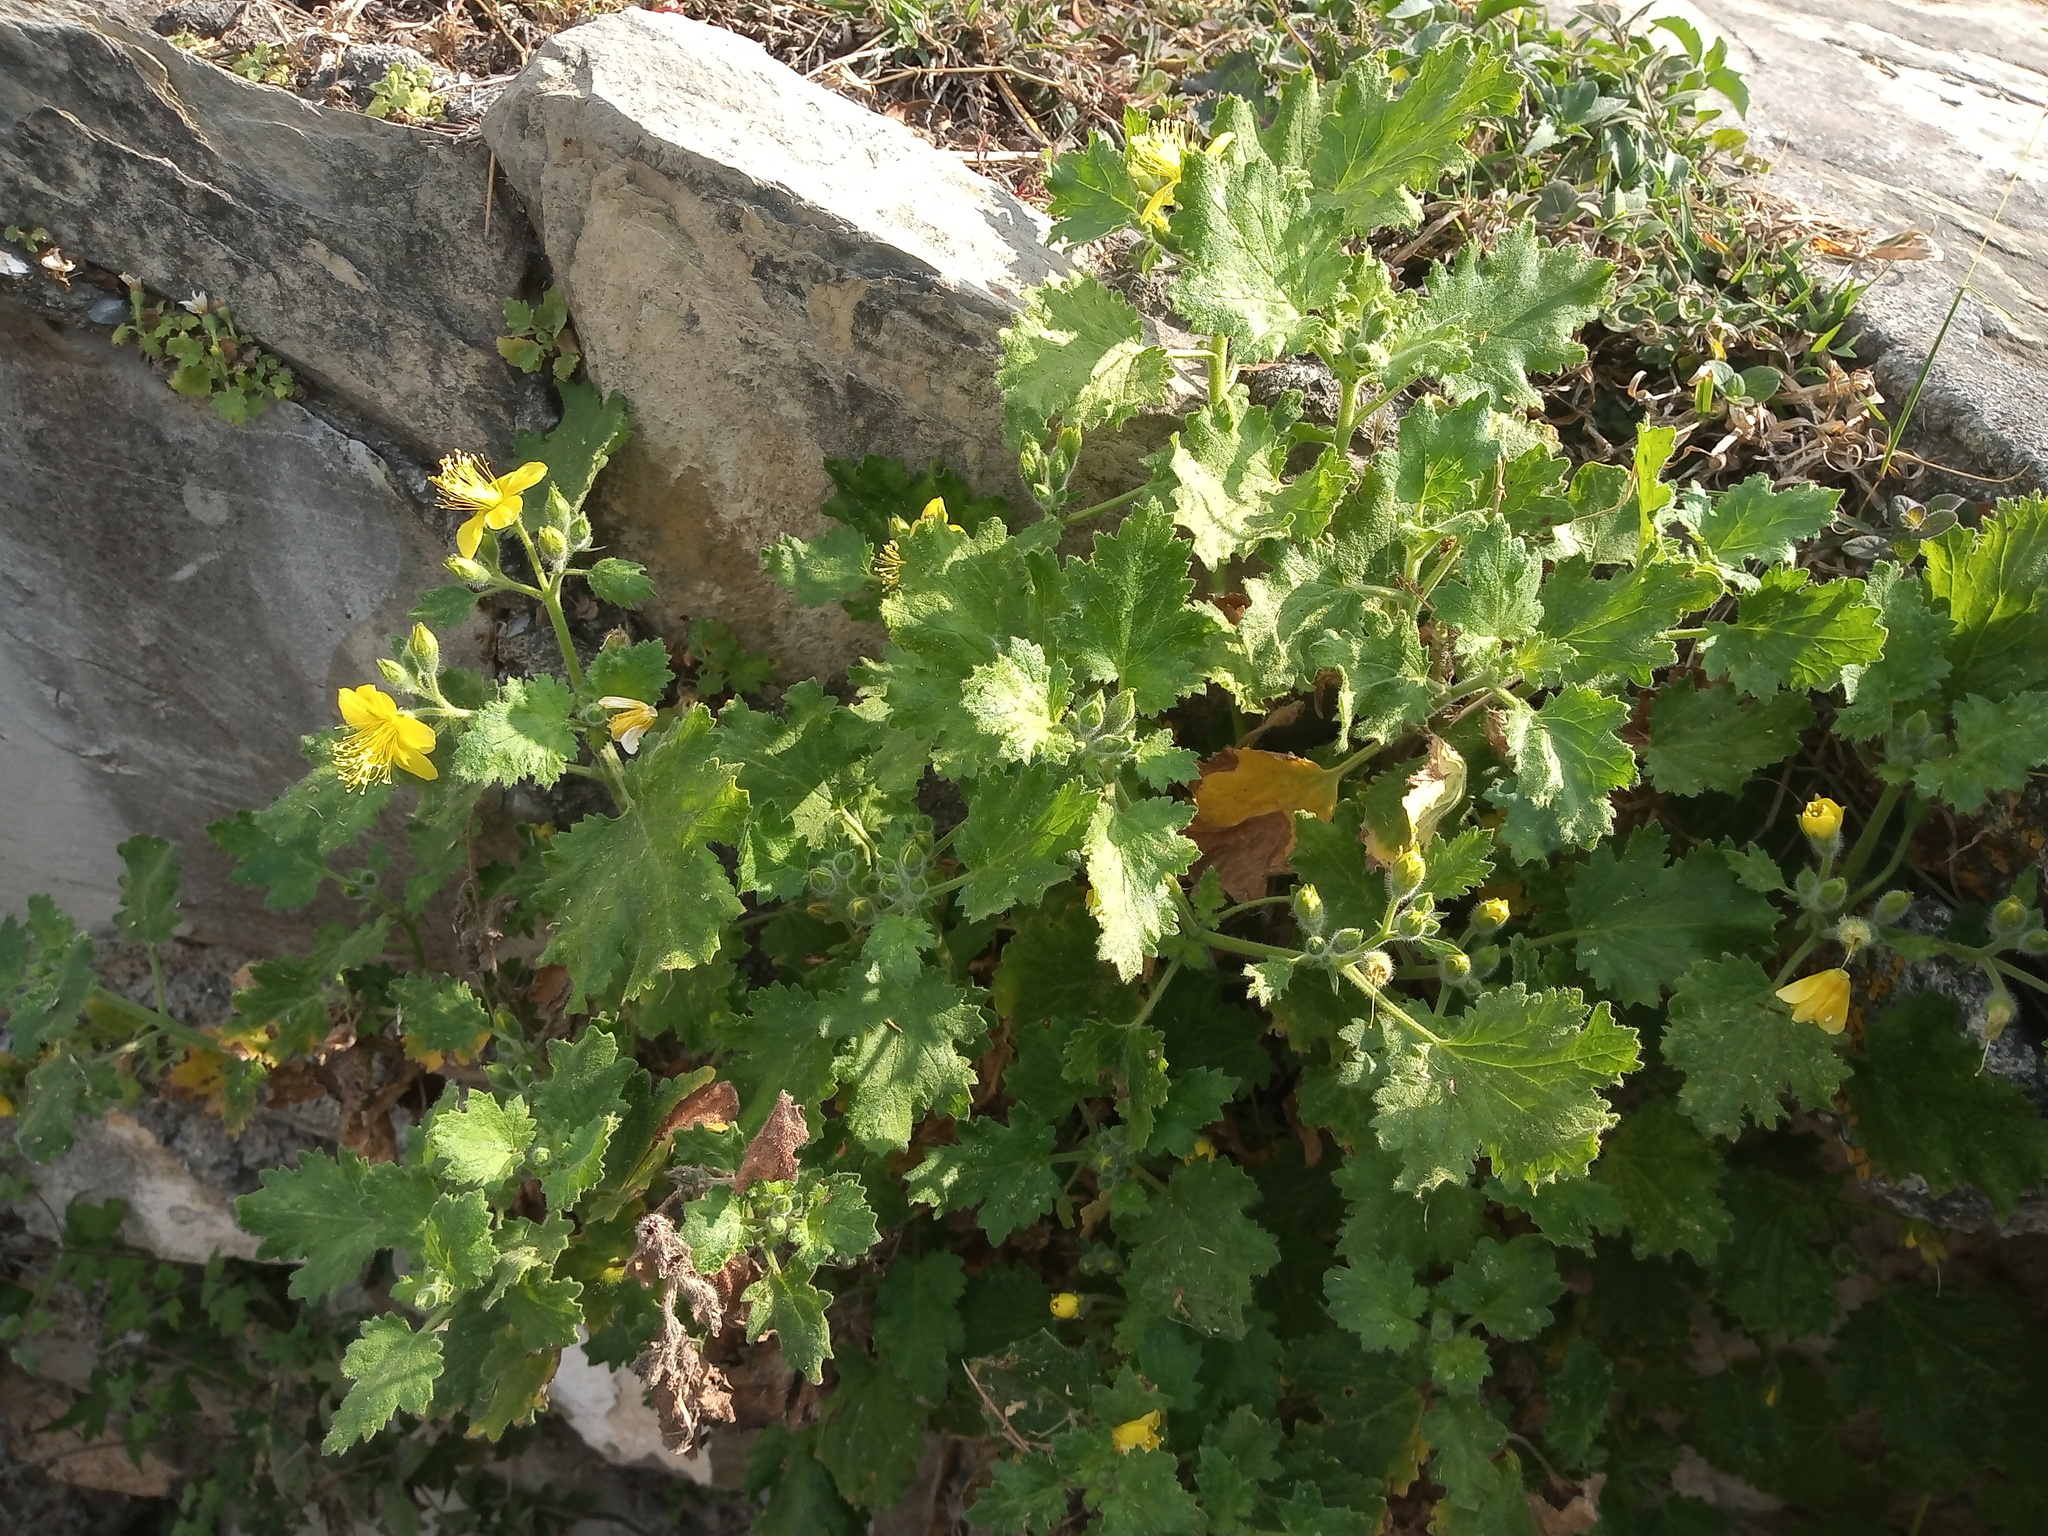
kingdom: Plantae
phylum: Tracheophyta
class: Magnoliopsida
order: Cornales
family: Loasaceae
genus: Eucnide
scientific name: Eucnide lobata
